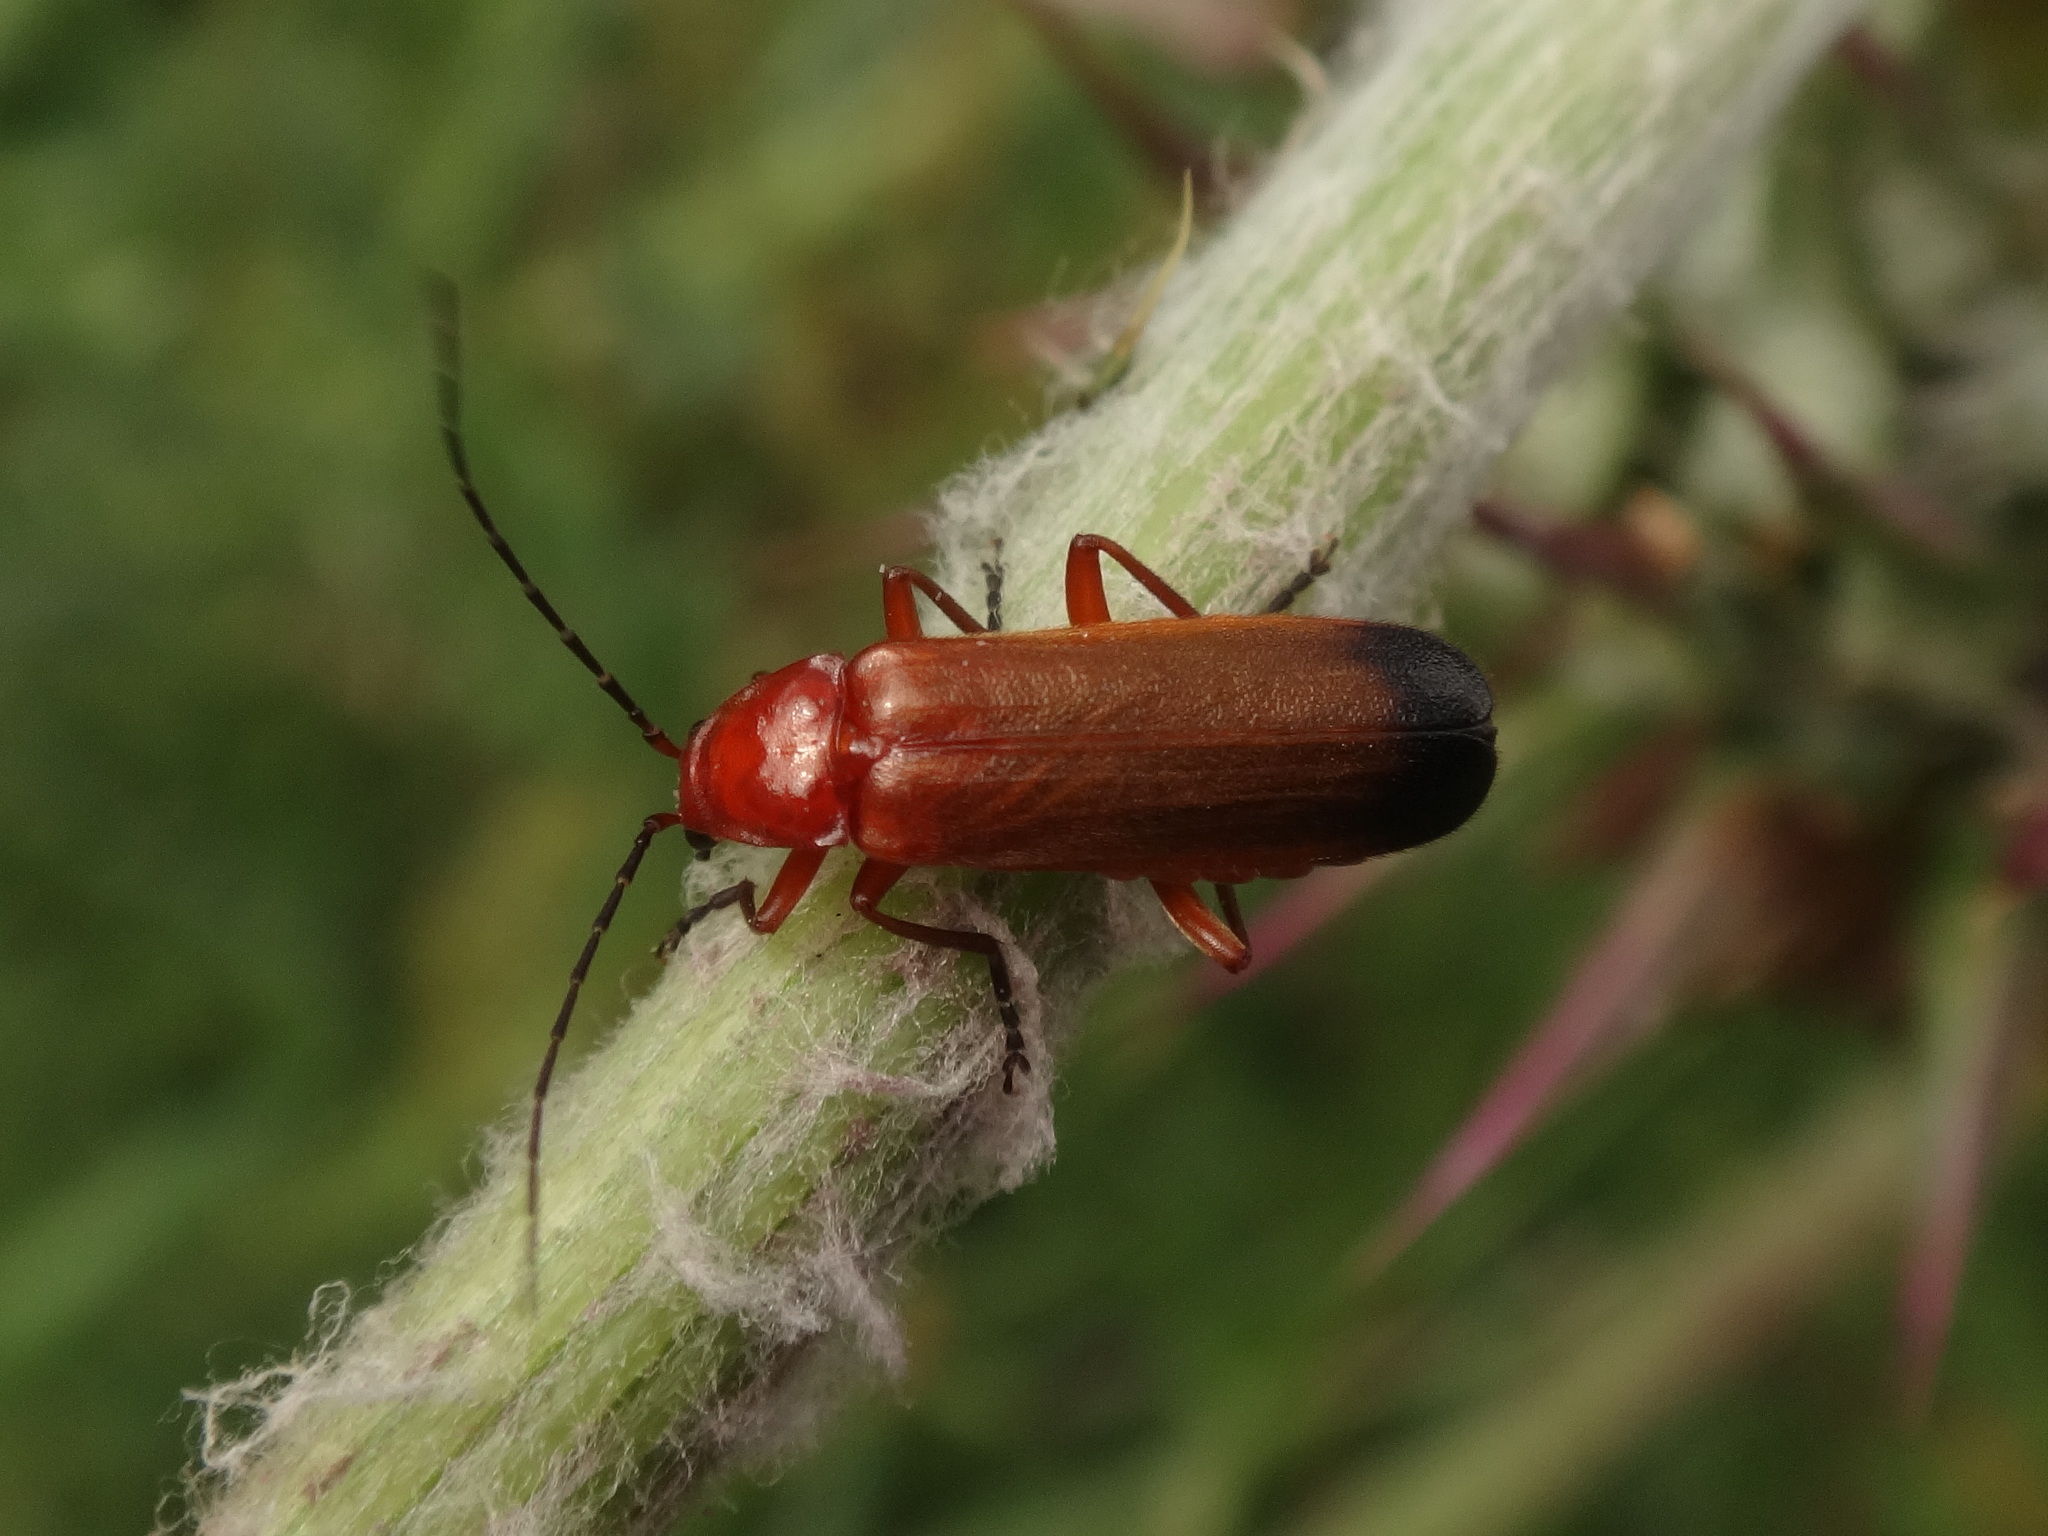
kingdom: Animalia
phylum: Arthropoda
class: Insecta
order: Coleoptera
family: Cantharidae
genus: Rhagonycha
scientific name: Rhagonycha fulva
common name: Common red soldier beetle
